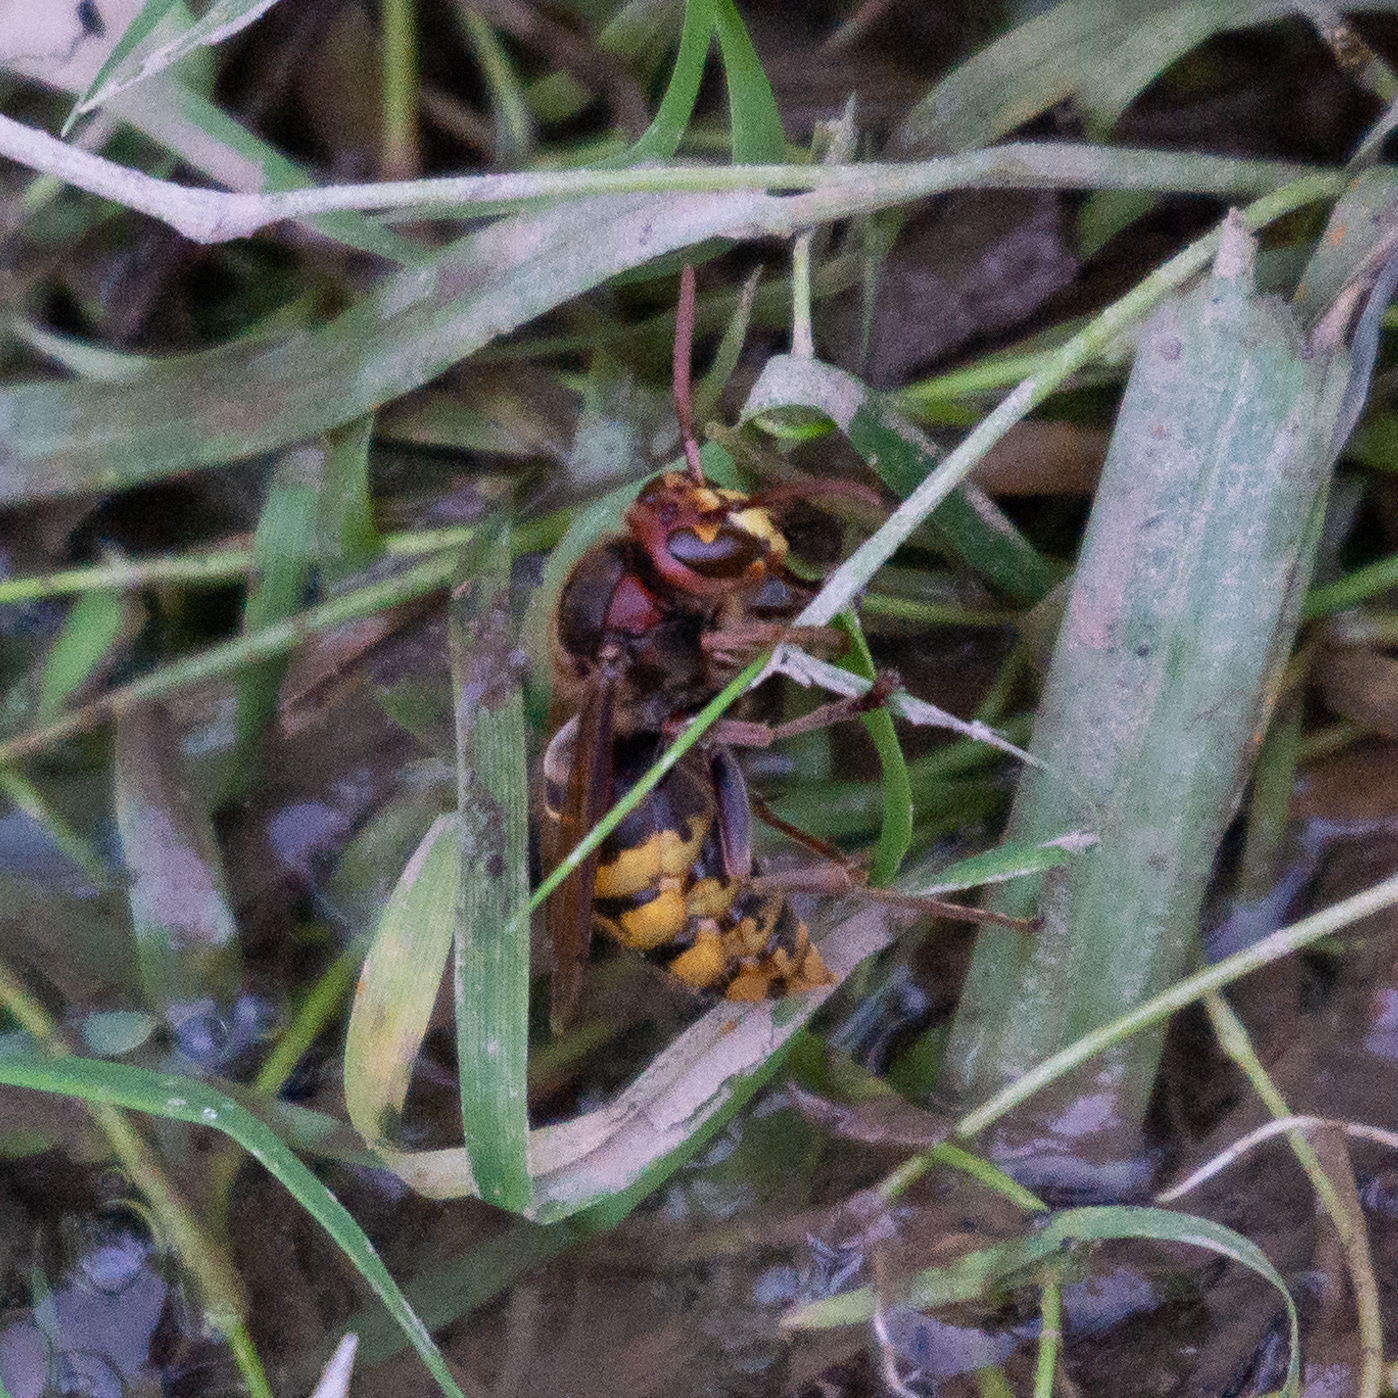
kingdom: Animalia
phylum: Arthropoda
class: Insecta
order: Hymenoptera
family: Vespidae
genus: Vespa
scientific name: Vespa crabro
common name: Hornet
